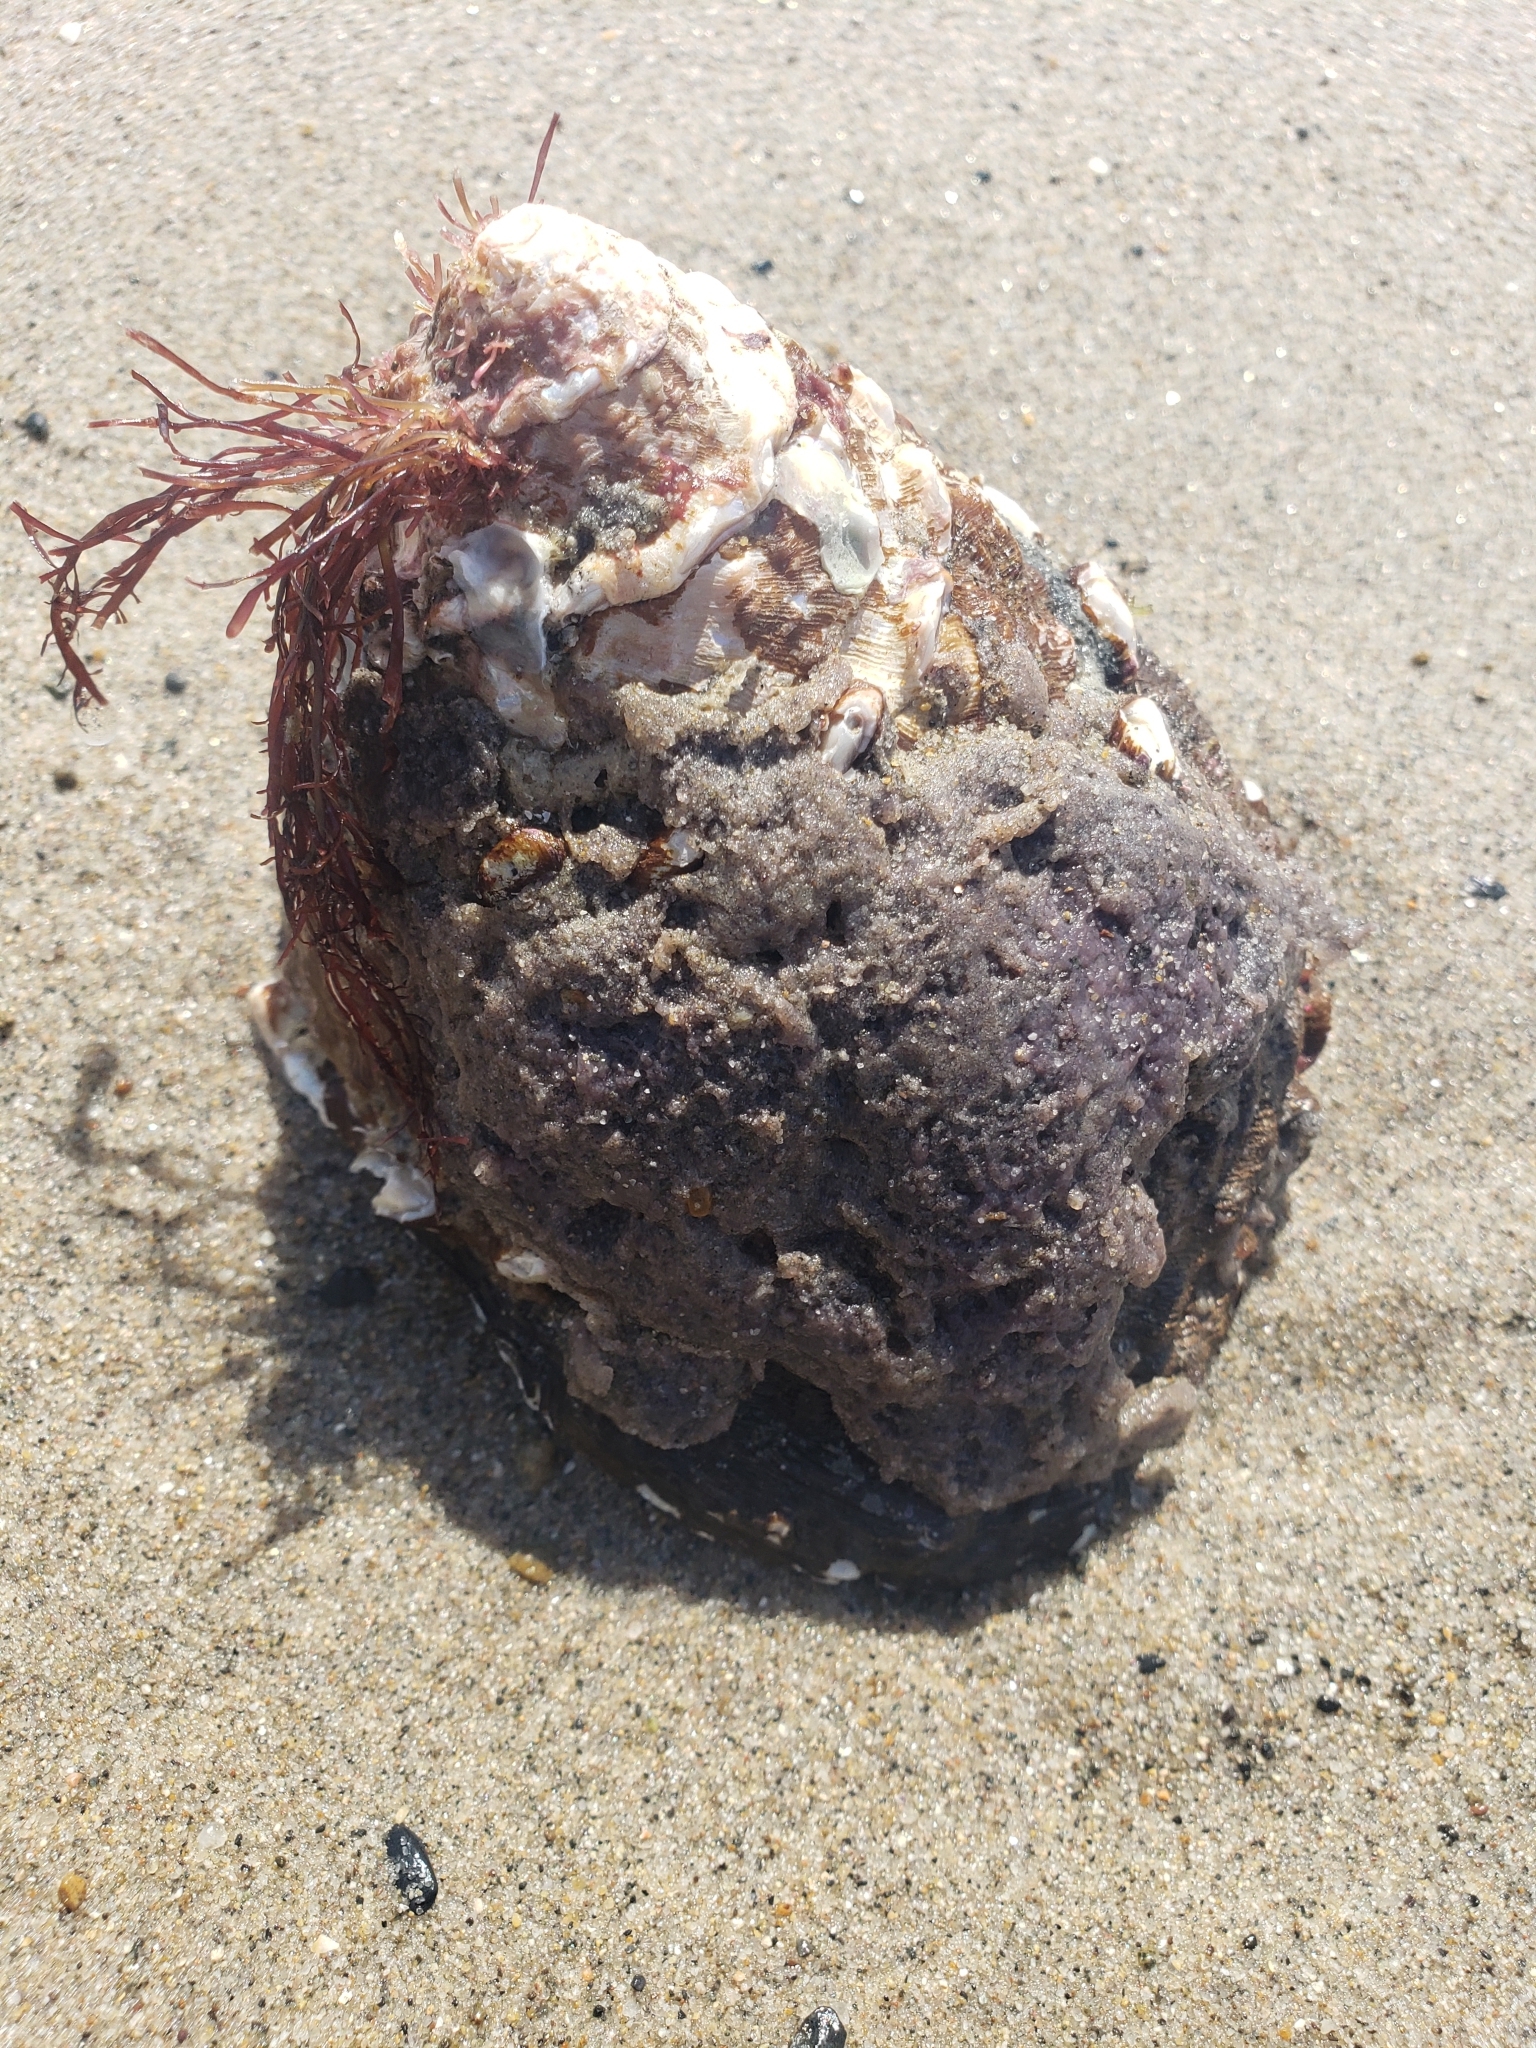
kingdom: Animalia
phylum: Mollusca
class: Gastropoda
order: Trochida
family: Turbinidae
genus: Megastraea
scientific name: Megastraea undosa
